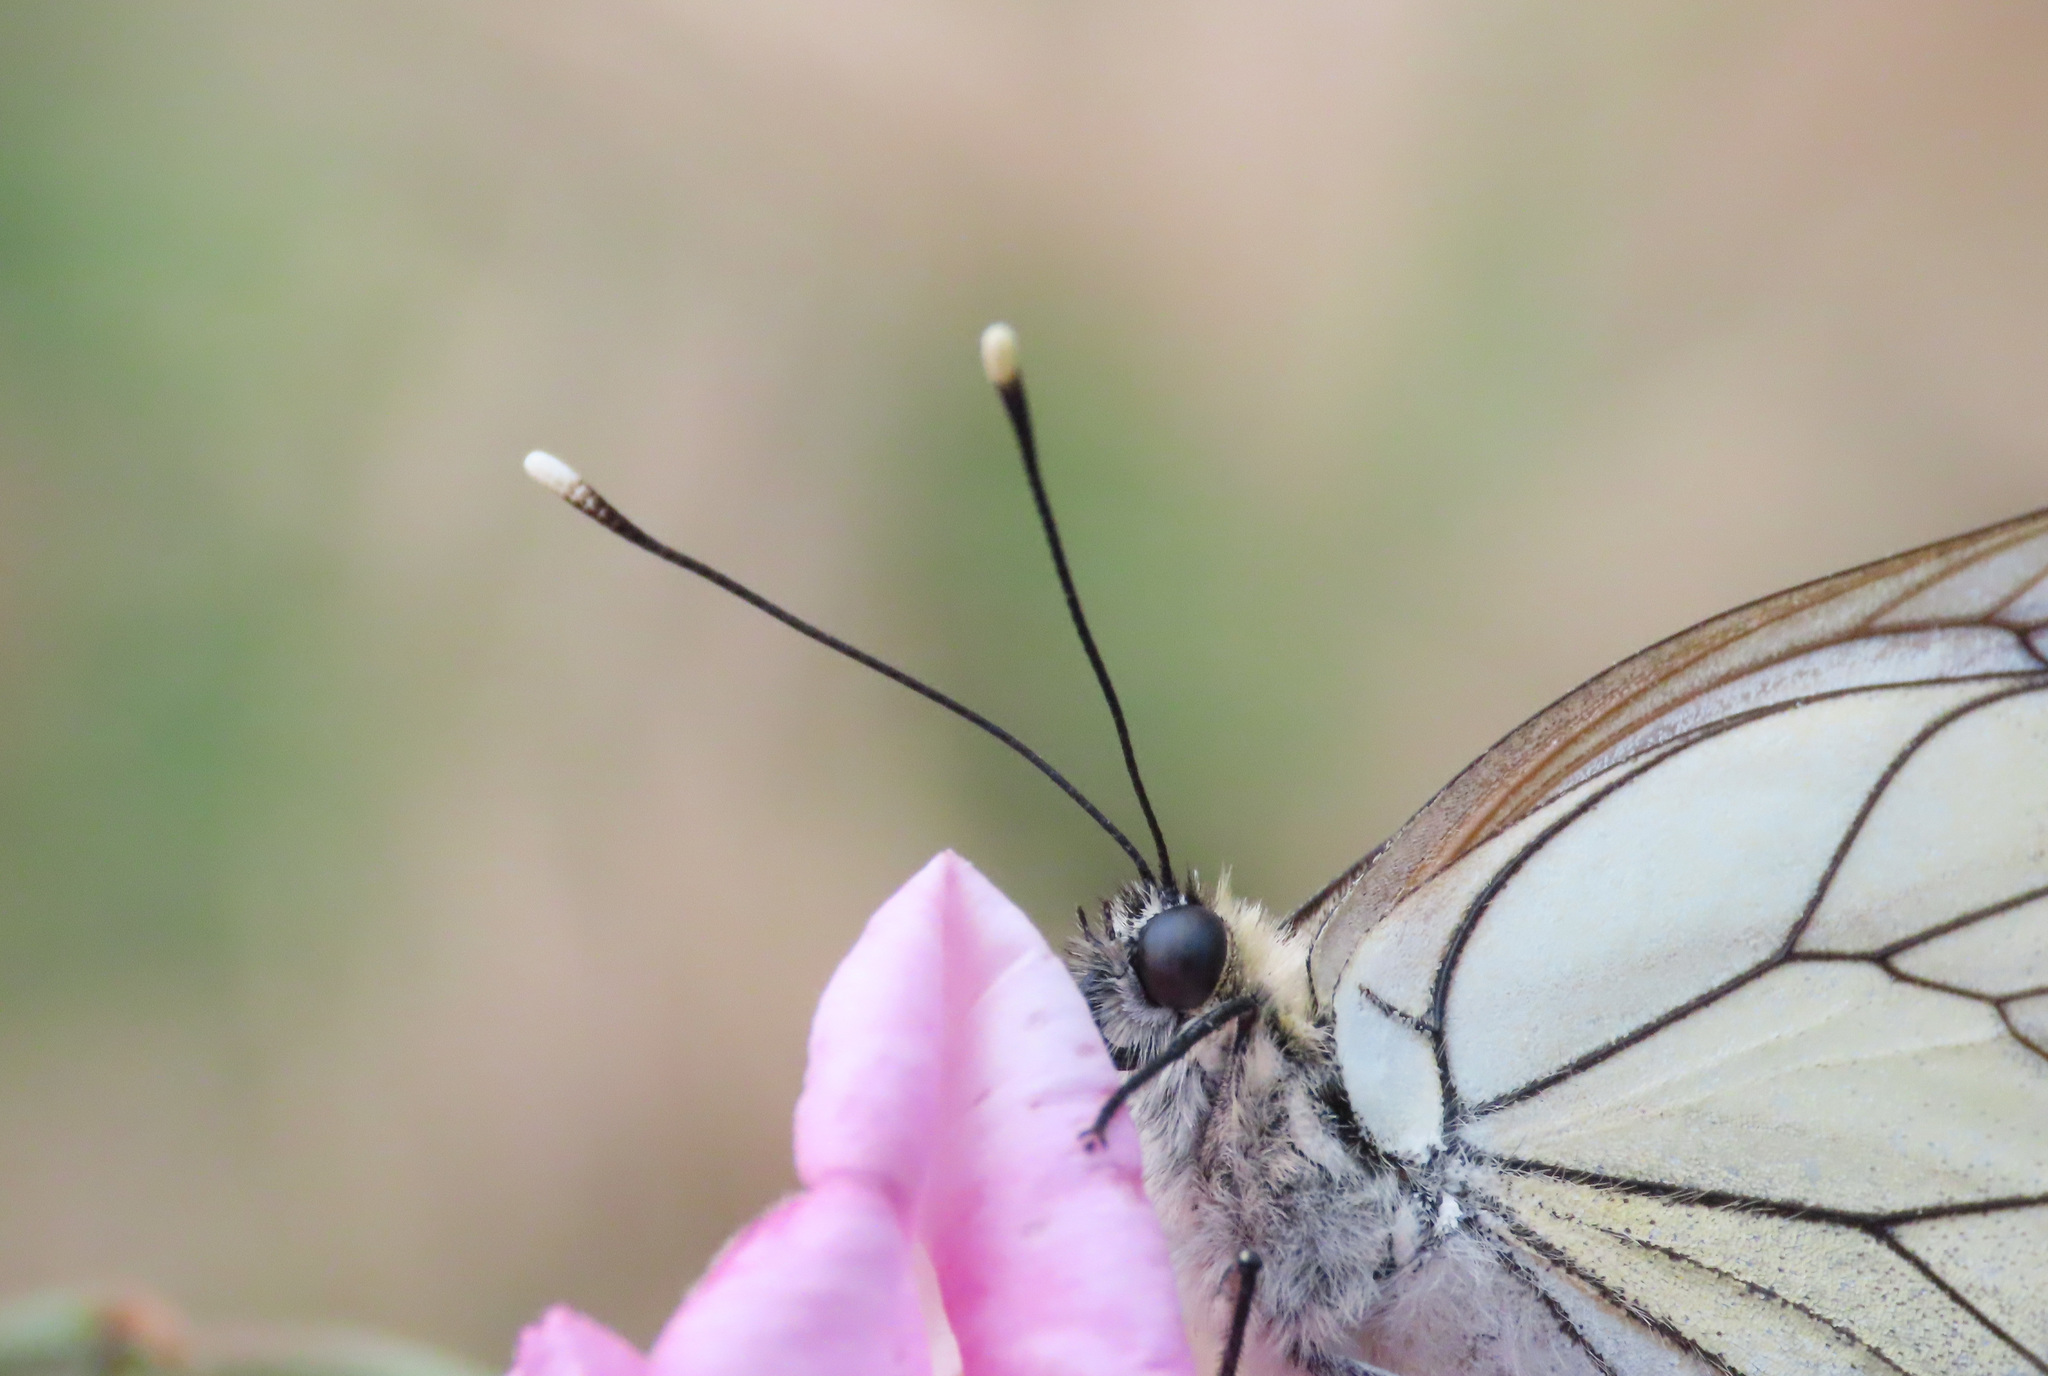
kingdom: Animalia
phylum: Arthropoda
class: Insecta
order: Lepidoptera
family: Pieridae
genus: Aporia
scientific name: Aporia crataegi
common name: Black-veined white
